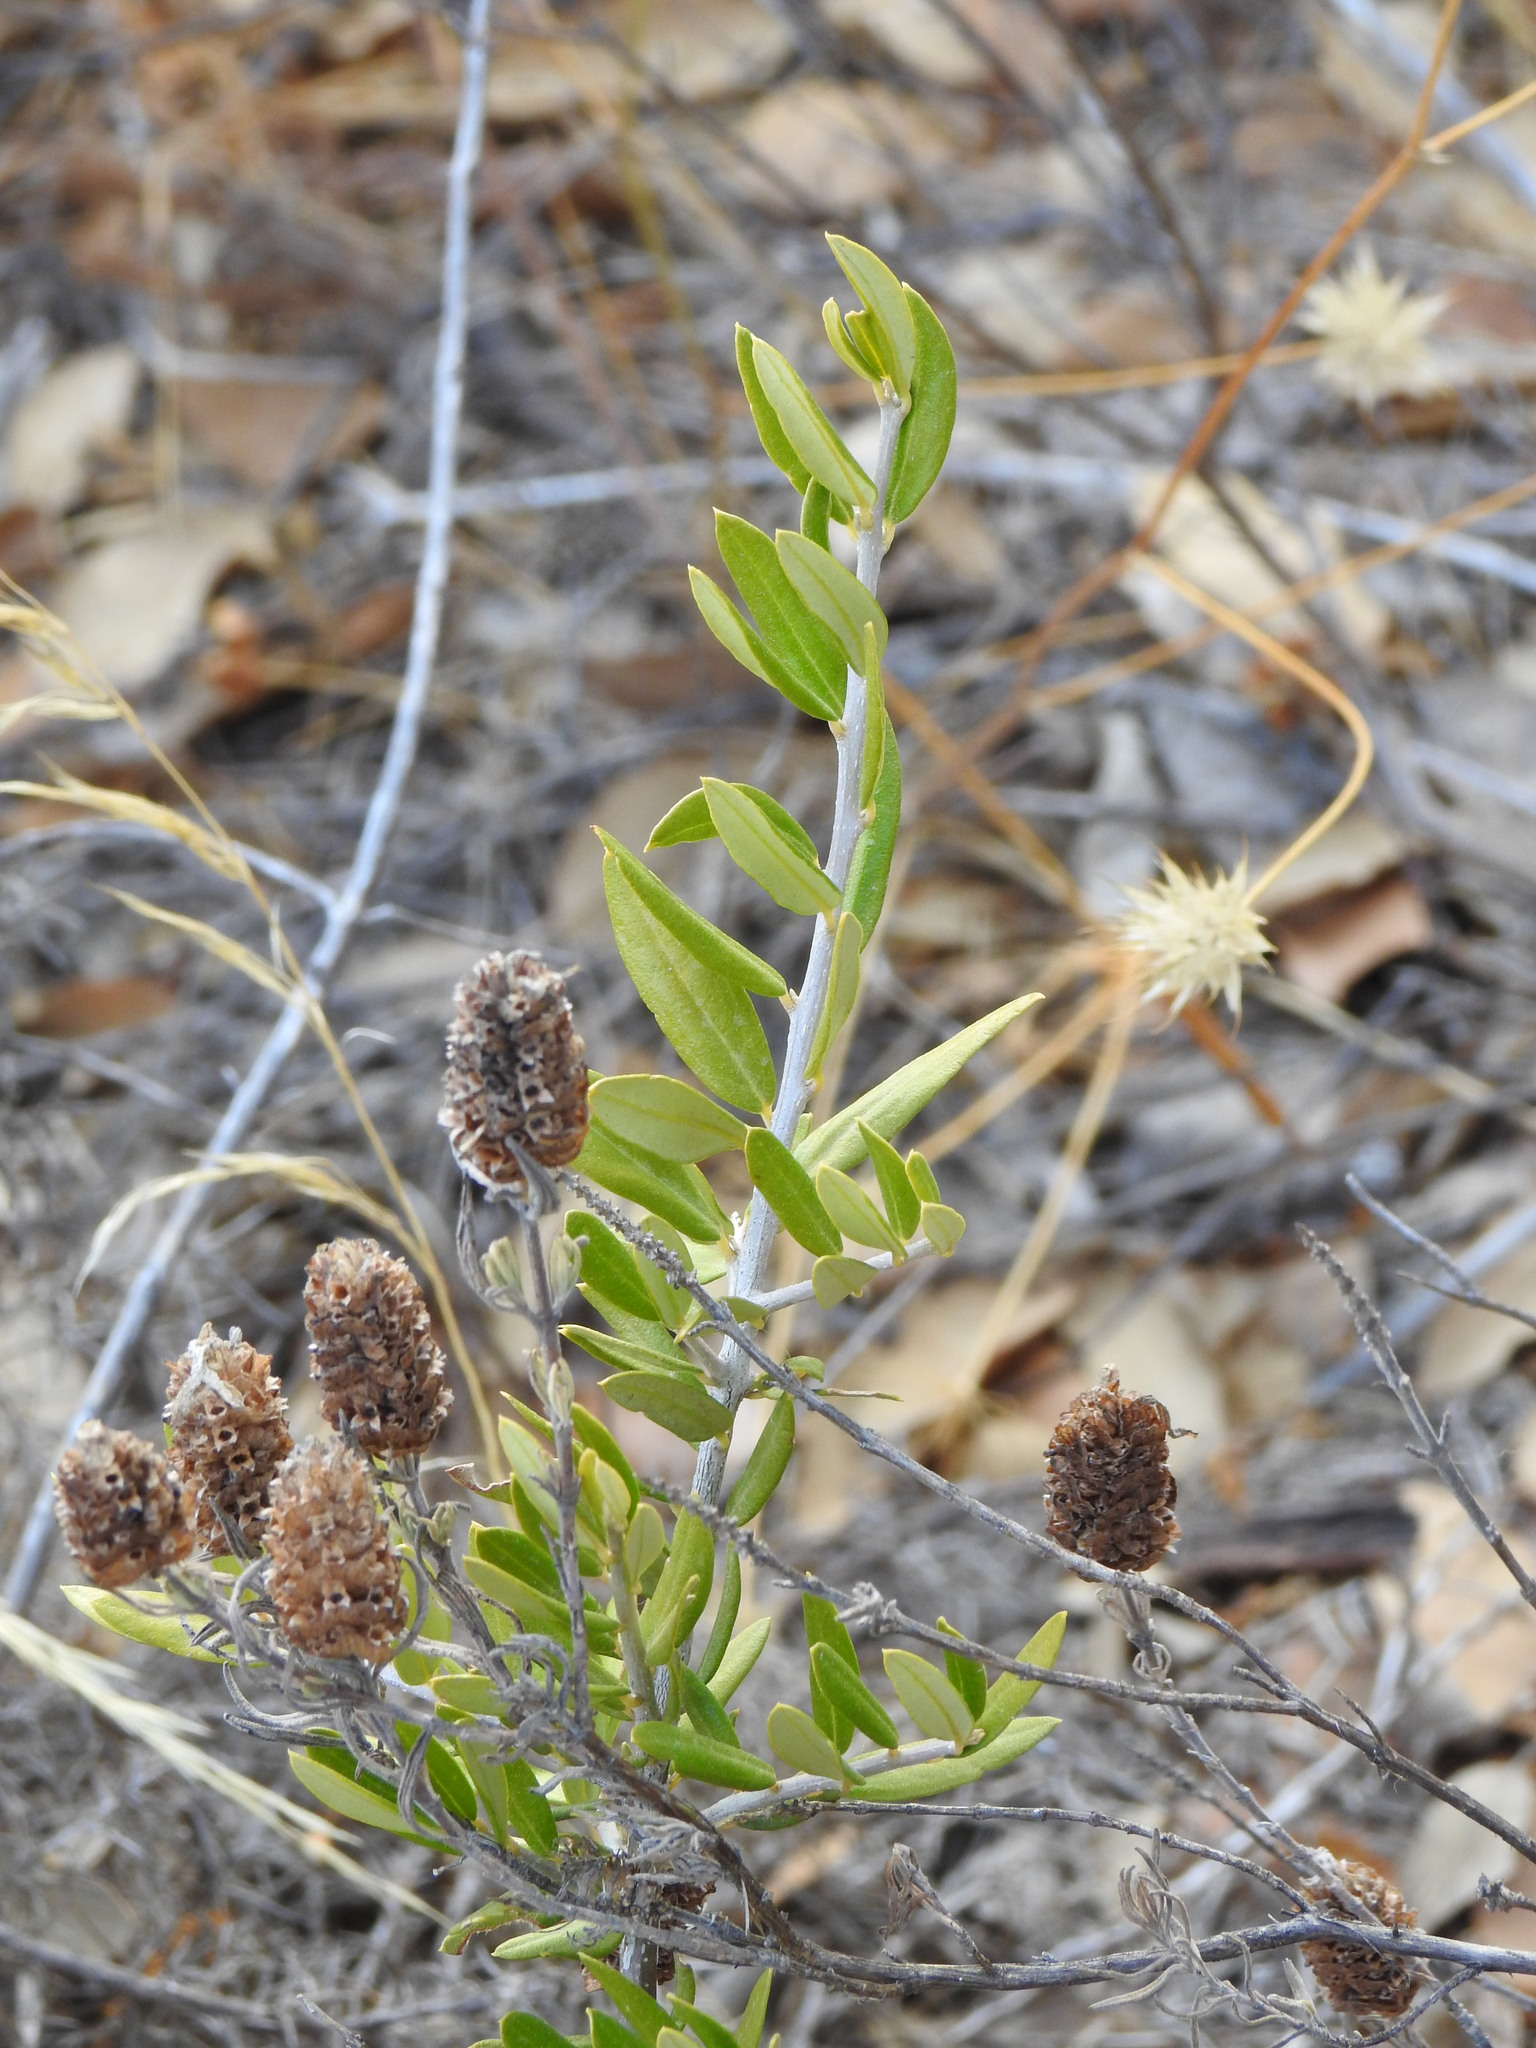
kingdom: Plantae
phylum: Tracheophyta
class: Magnoliopsida
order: Lamiales
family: Oleaceae
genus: Olea
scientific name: Olea europaea
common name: Olive
